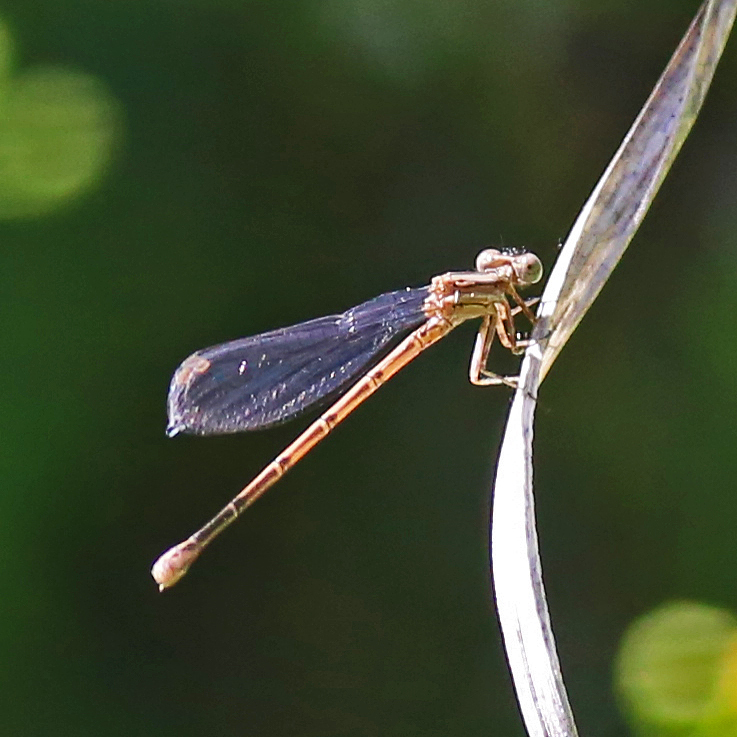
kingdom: Animalia
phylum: Arthropoda
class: Insecta
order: Odonata
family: Coenagrionidae
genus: Argia
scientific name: Argia fumipennis
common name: Variable dancer
